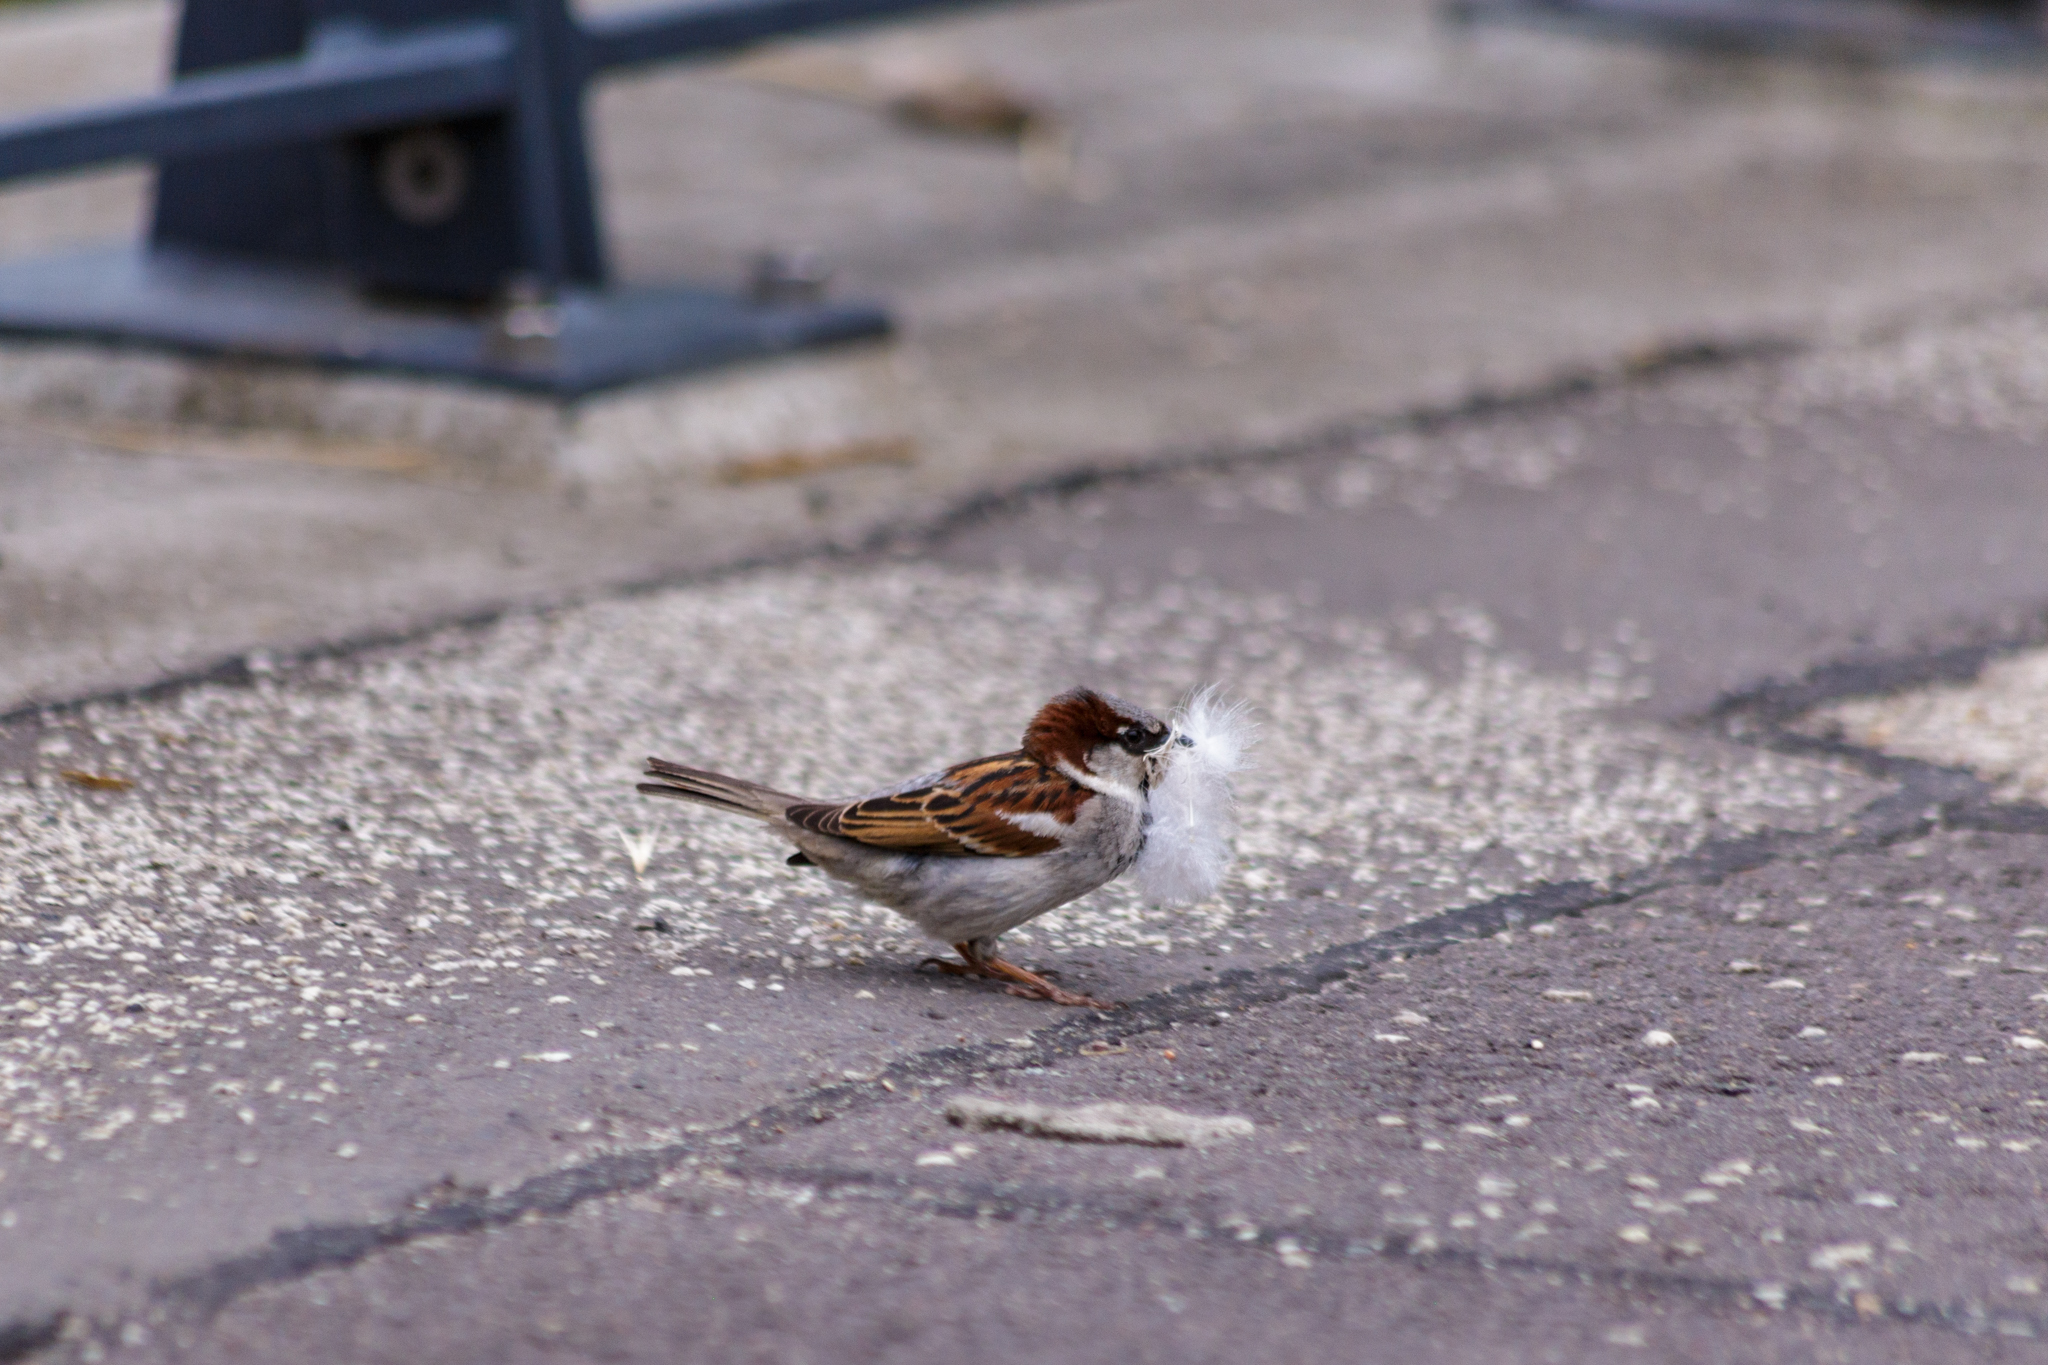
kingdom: Animalia
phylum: Chordata
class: Aves
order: Passeriformes
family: Passeridae
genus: Passer
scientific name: Passer domesticus
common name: House sparrow
